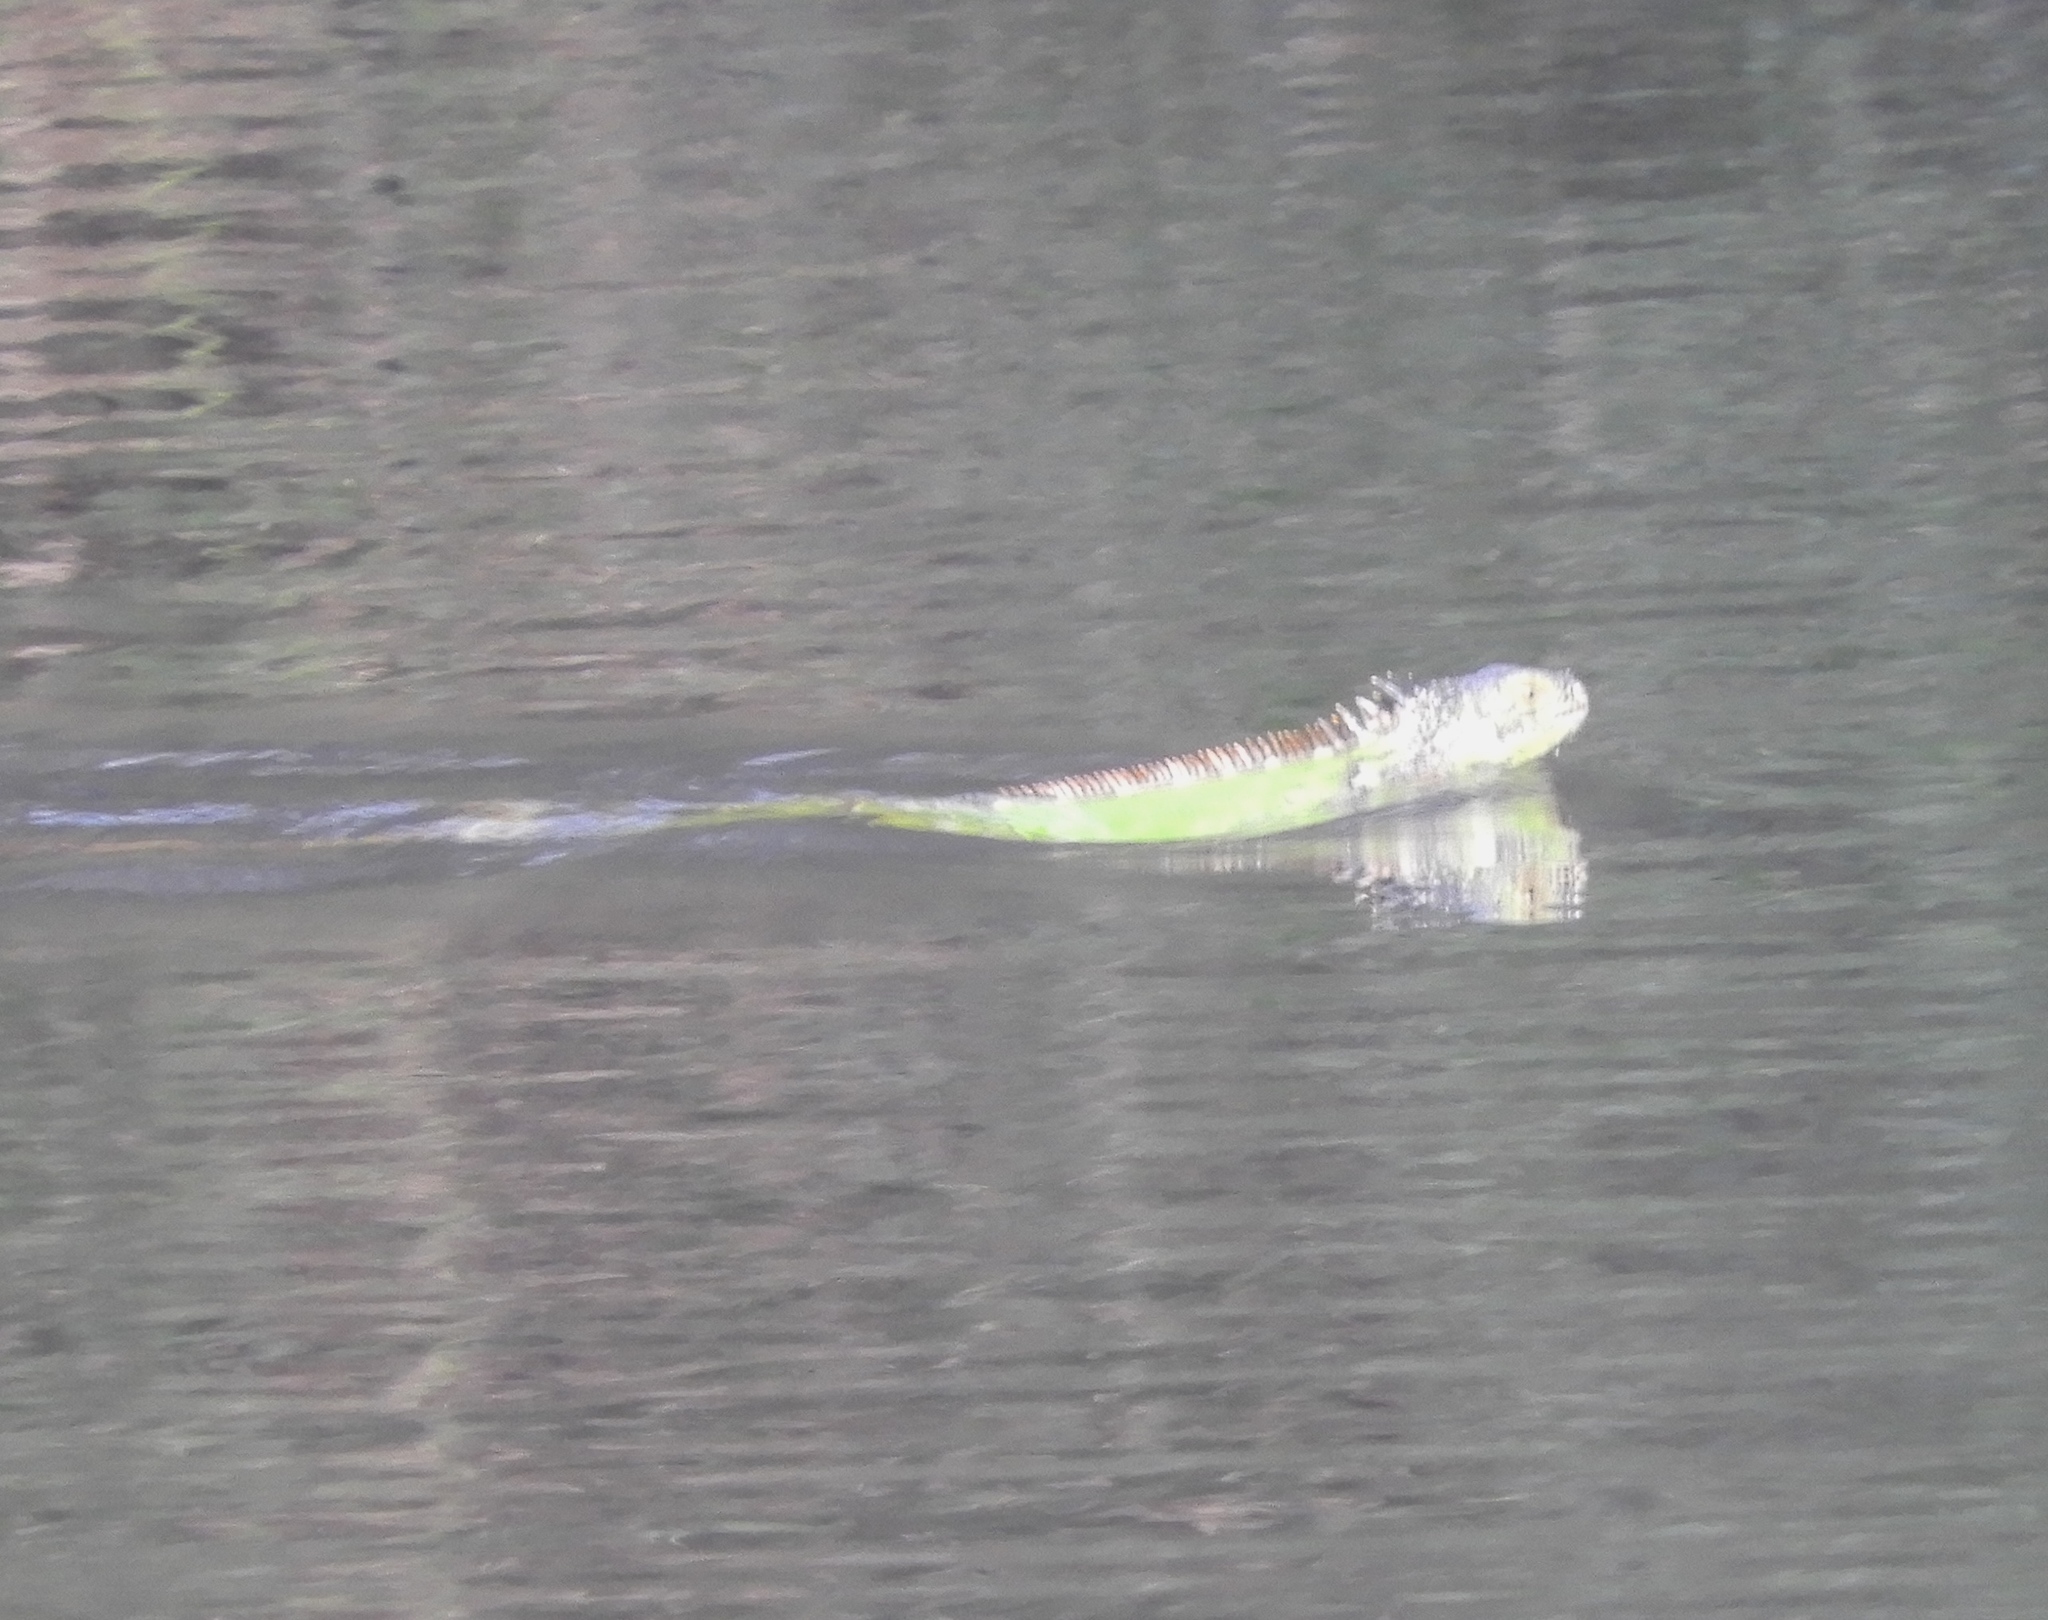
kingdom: Animalia
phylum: Chordata
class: Squamata
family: Iguanidae
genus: Iguana
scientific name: Iguana iguana
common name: Green iguana
